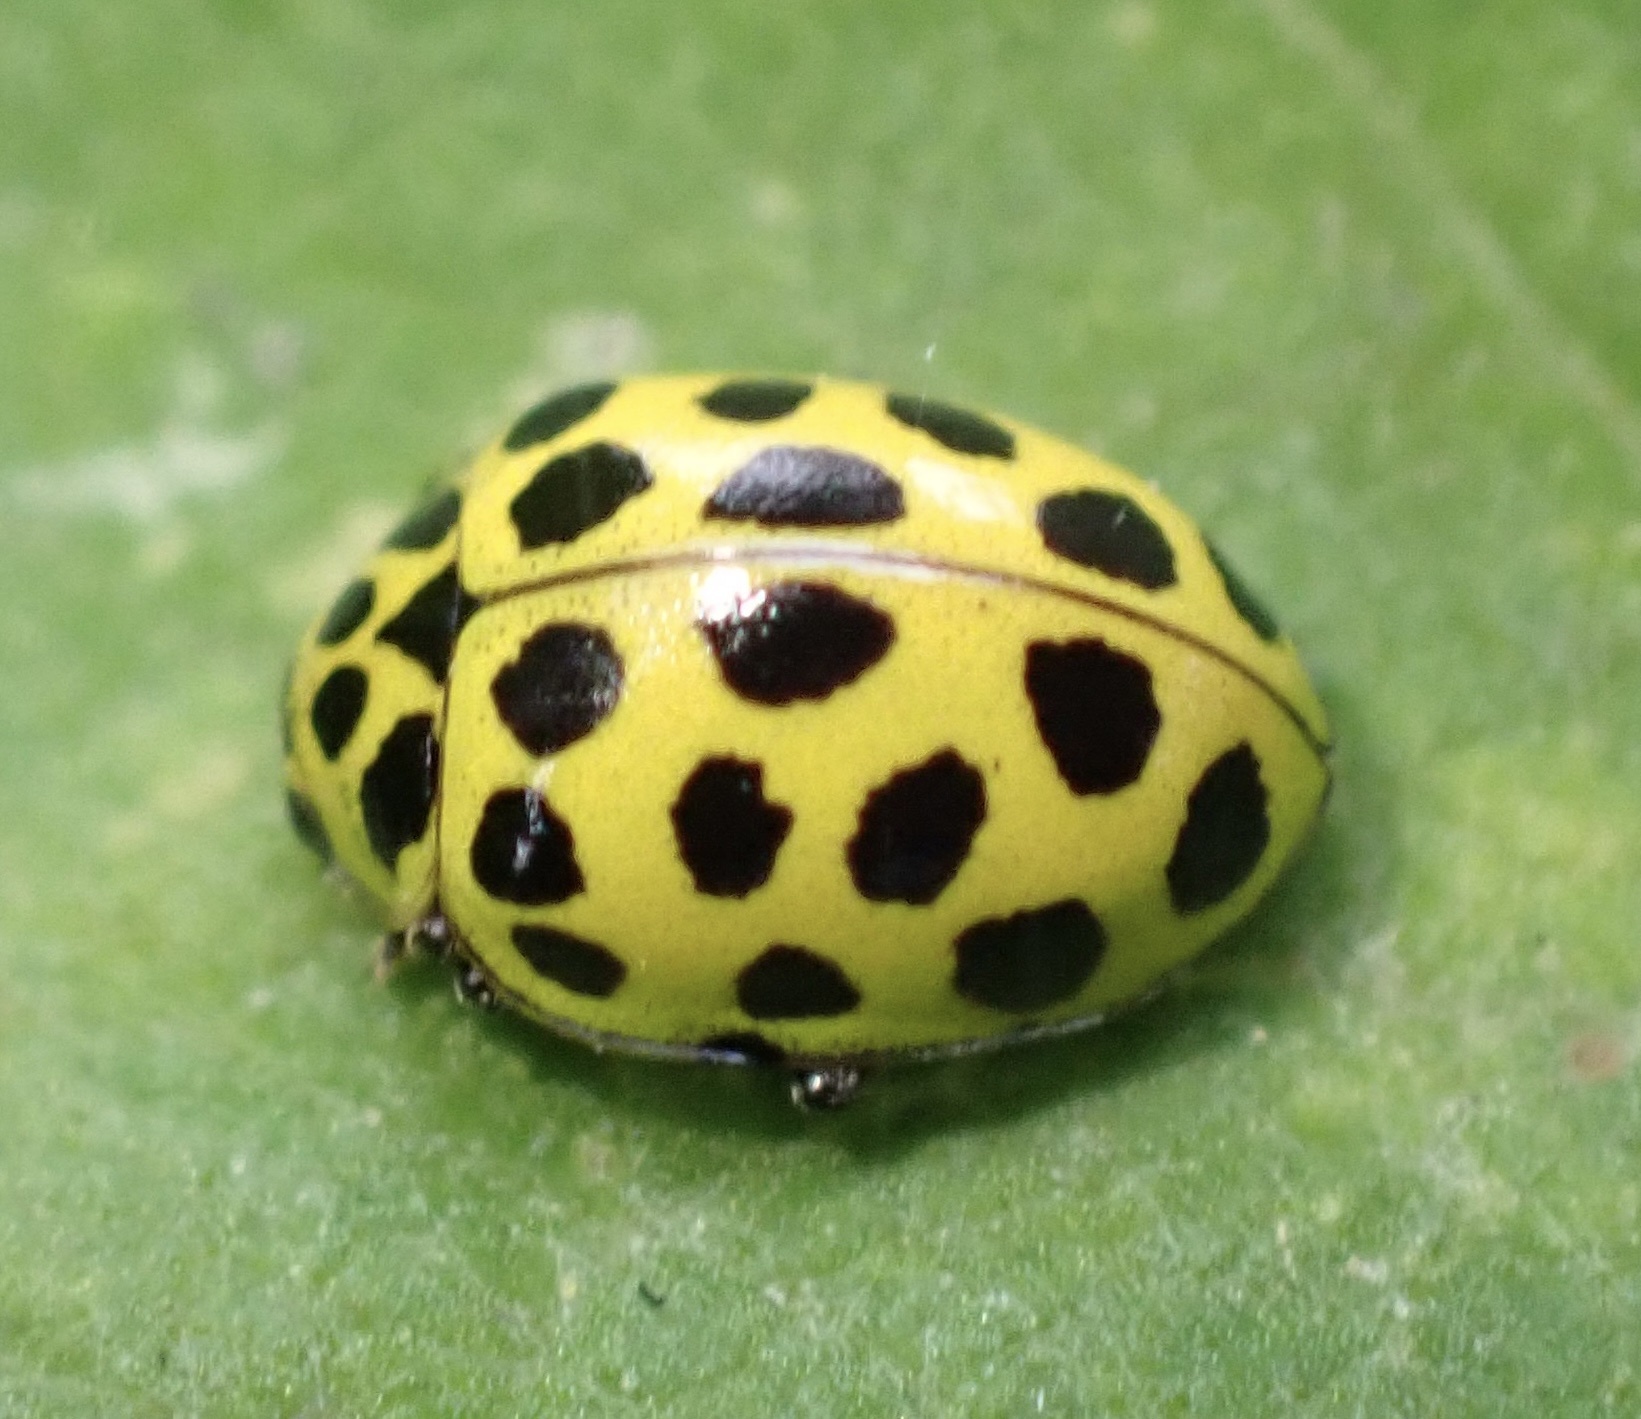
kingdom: Animalia
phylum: Arthropoda
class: Insecta
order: Coleoptera
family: Coccinellidae
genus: Psyllobora
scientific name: Psyllobora vigintiduopunctata
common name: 22-spot ladybird
